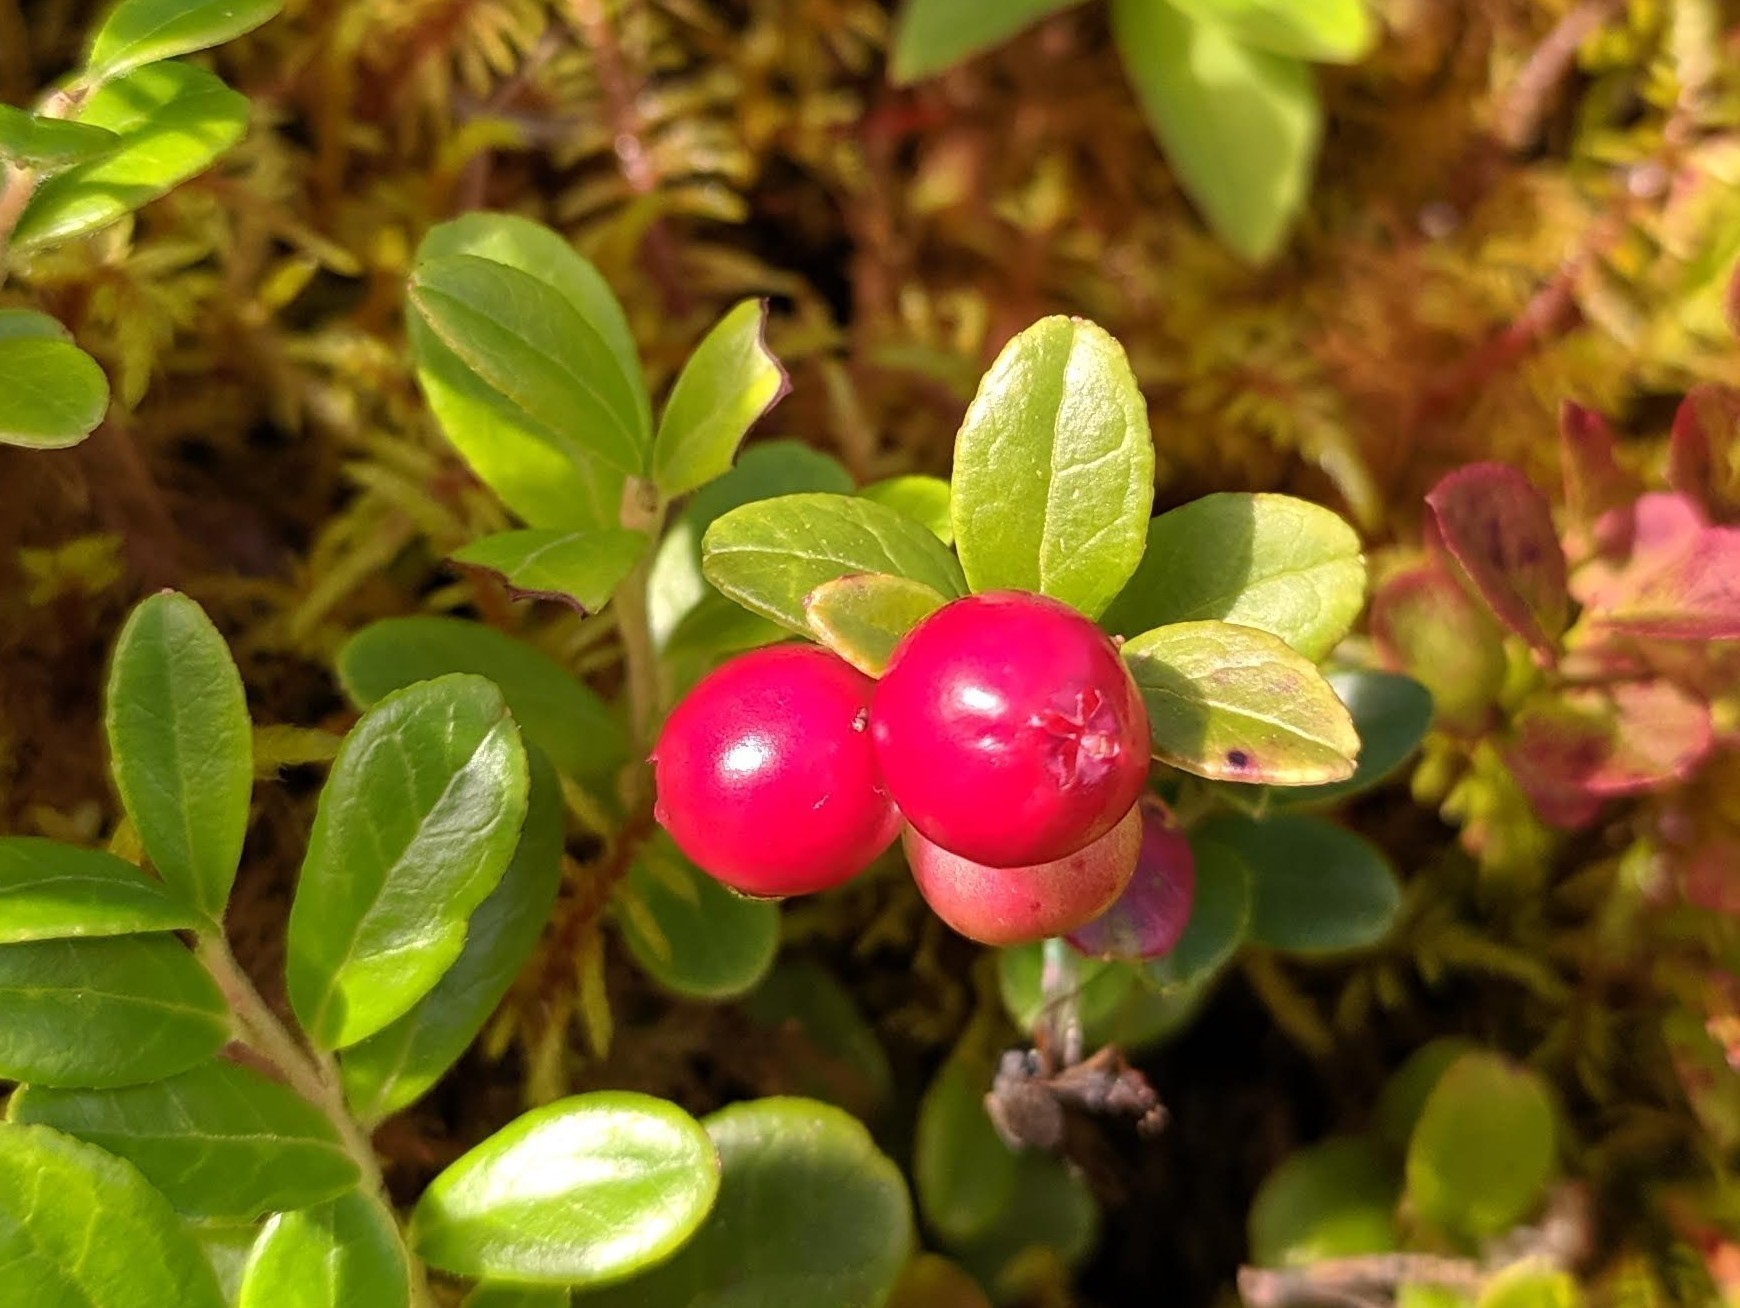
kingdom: Plantae
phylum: Tracheophyta
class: Magnoliopsida
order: Ericales
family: Ericaceae
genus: Vaccinium
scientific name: Vaccinium vitis-idaea
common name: Cowberry
